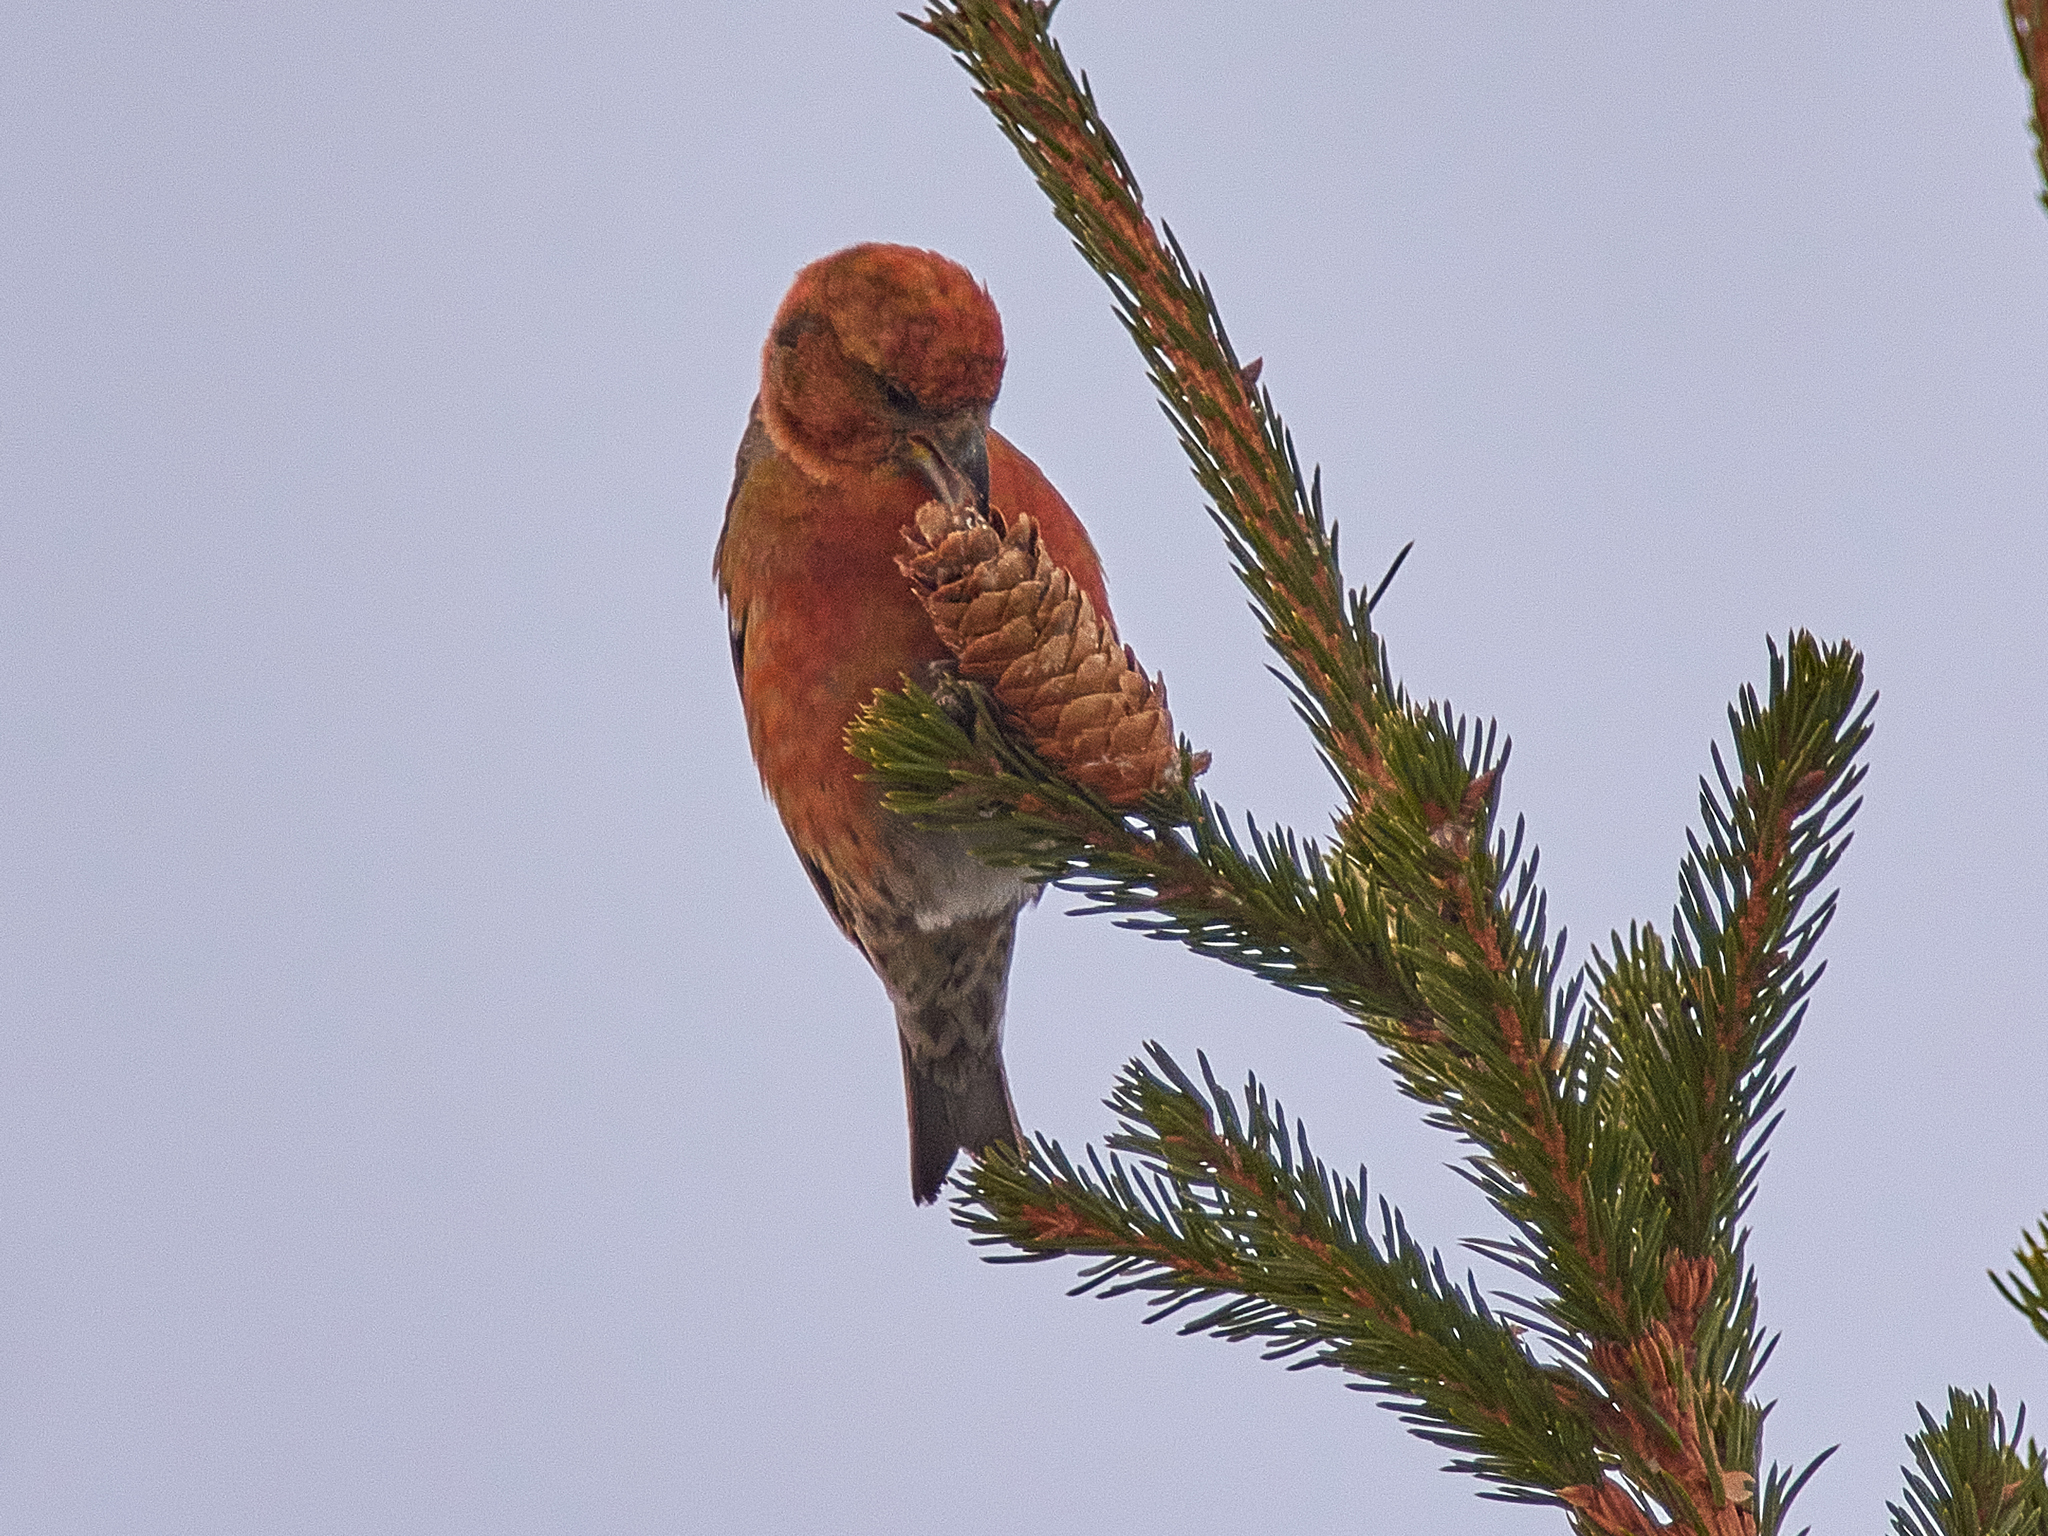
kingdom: Animalia
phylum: Chordata
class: Aves
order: Passeriformes
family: Fringillidae
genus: Loxia
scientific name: Loxia curvirostra
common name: Red crossbill
